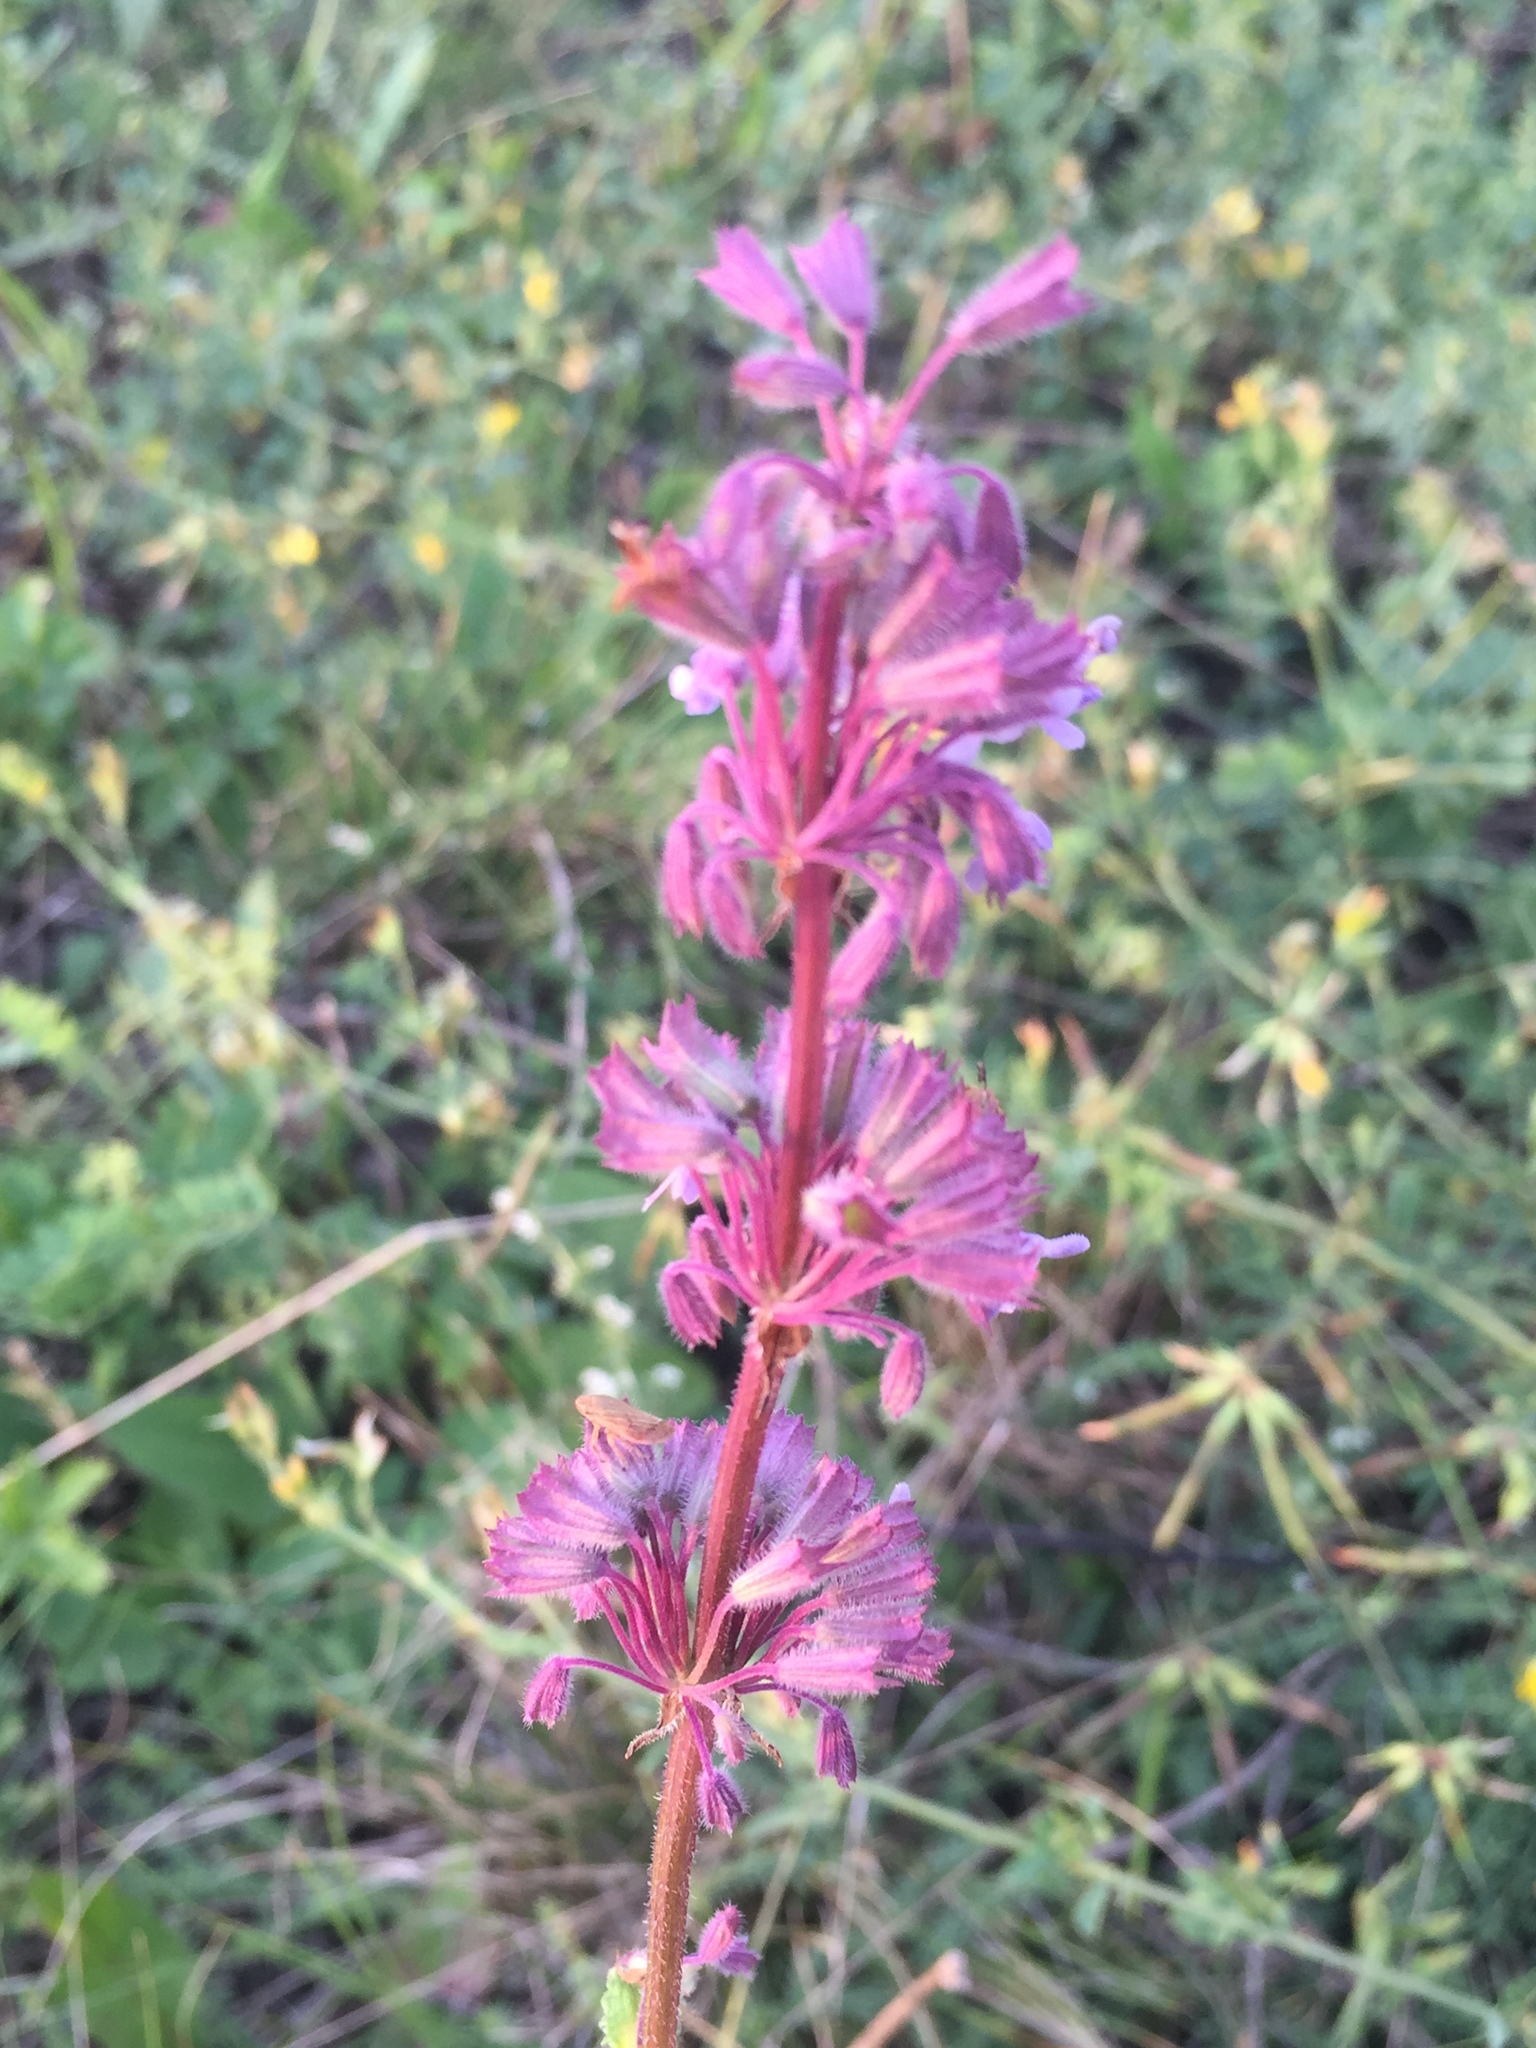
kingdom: Plantae
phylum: Tracheophyta
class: Magnoliopsida
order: Lamiales
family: Lamiaceae
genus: Salvia
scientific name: Salvia verticillata
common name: Whorled clary
